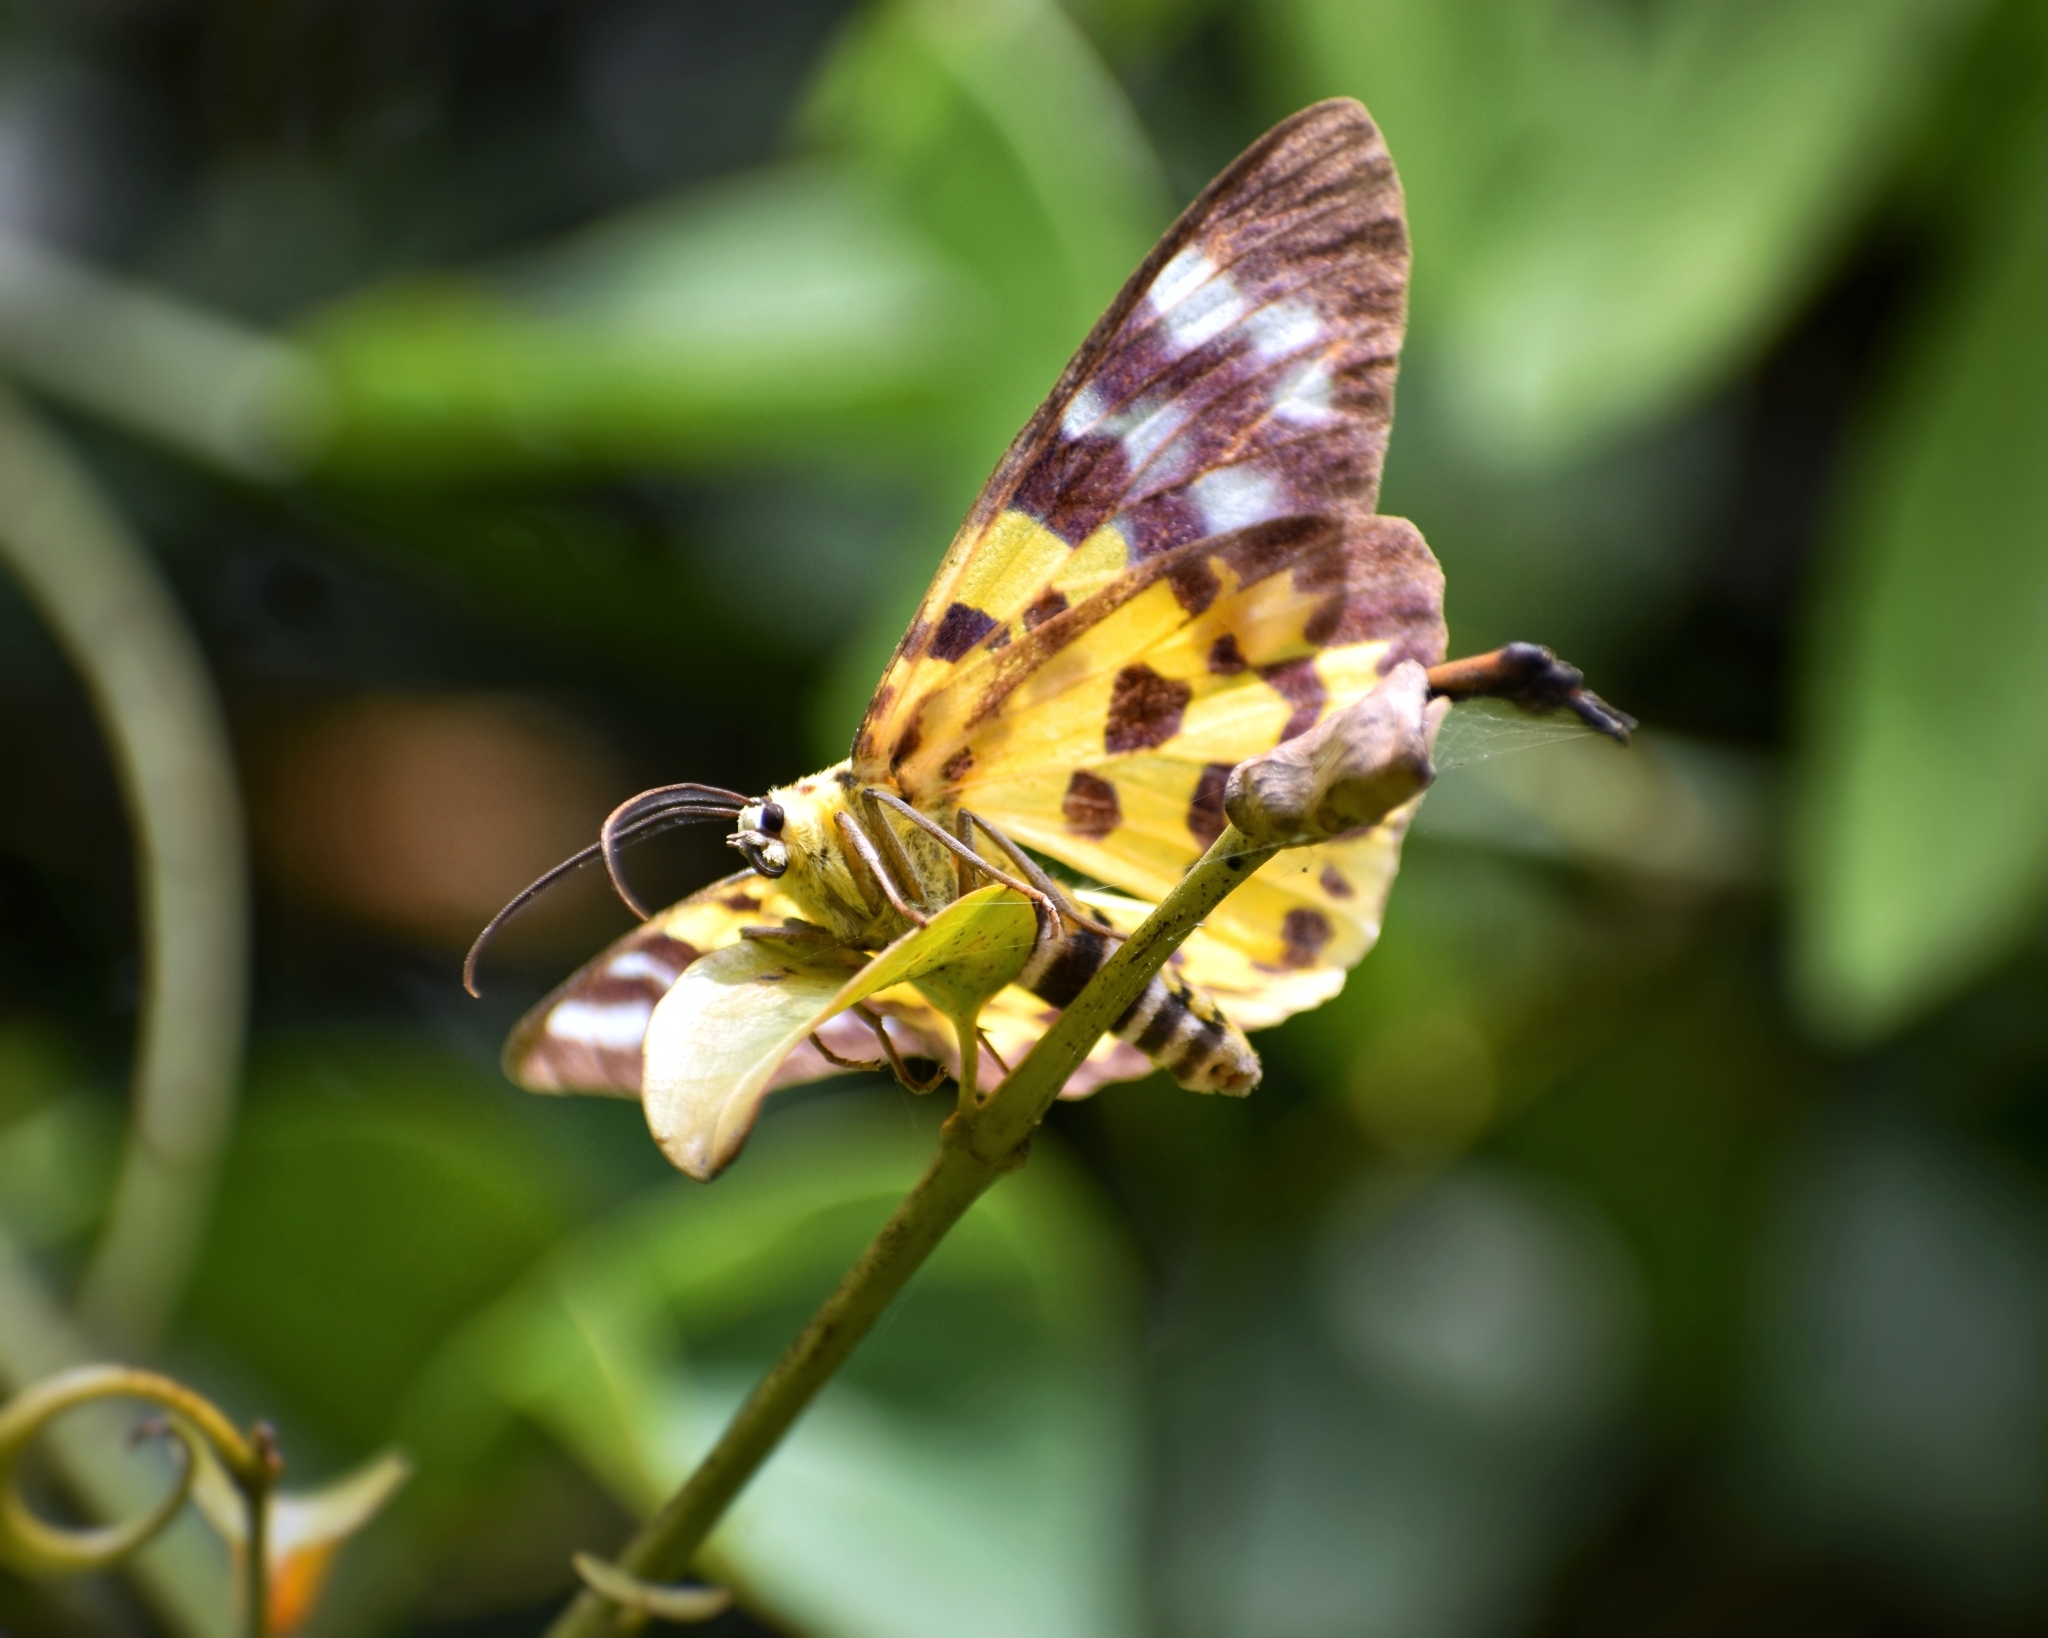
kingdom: Animalia
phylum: Arthropoda
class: Insecta
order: Lepidoptera
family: Geometridae
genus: Dysphania
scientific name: Dysphania militaris
